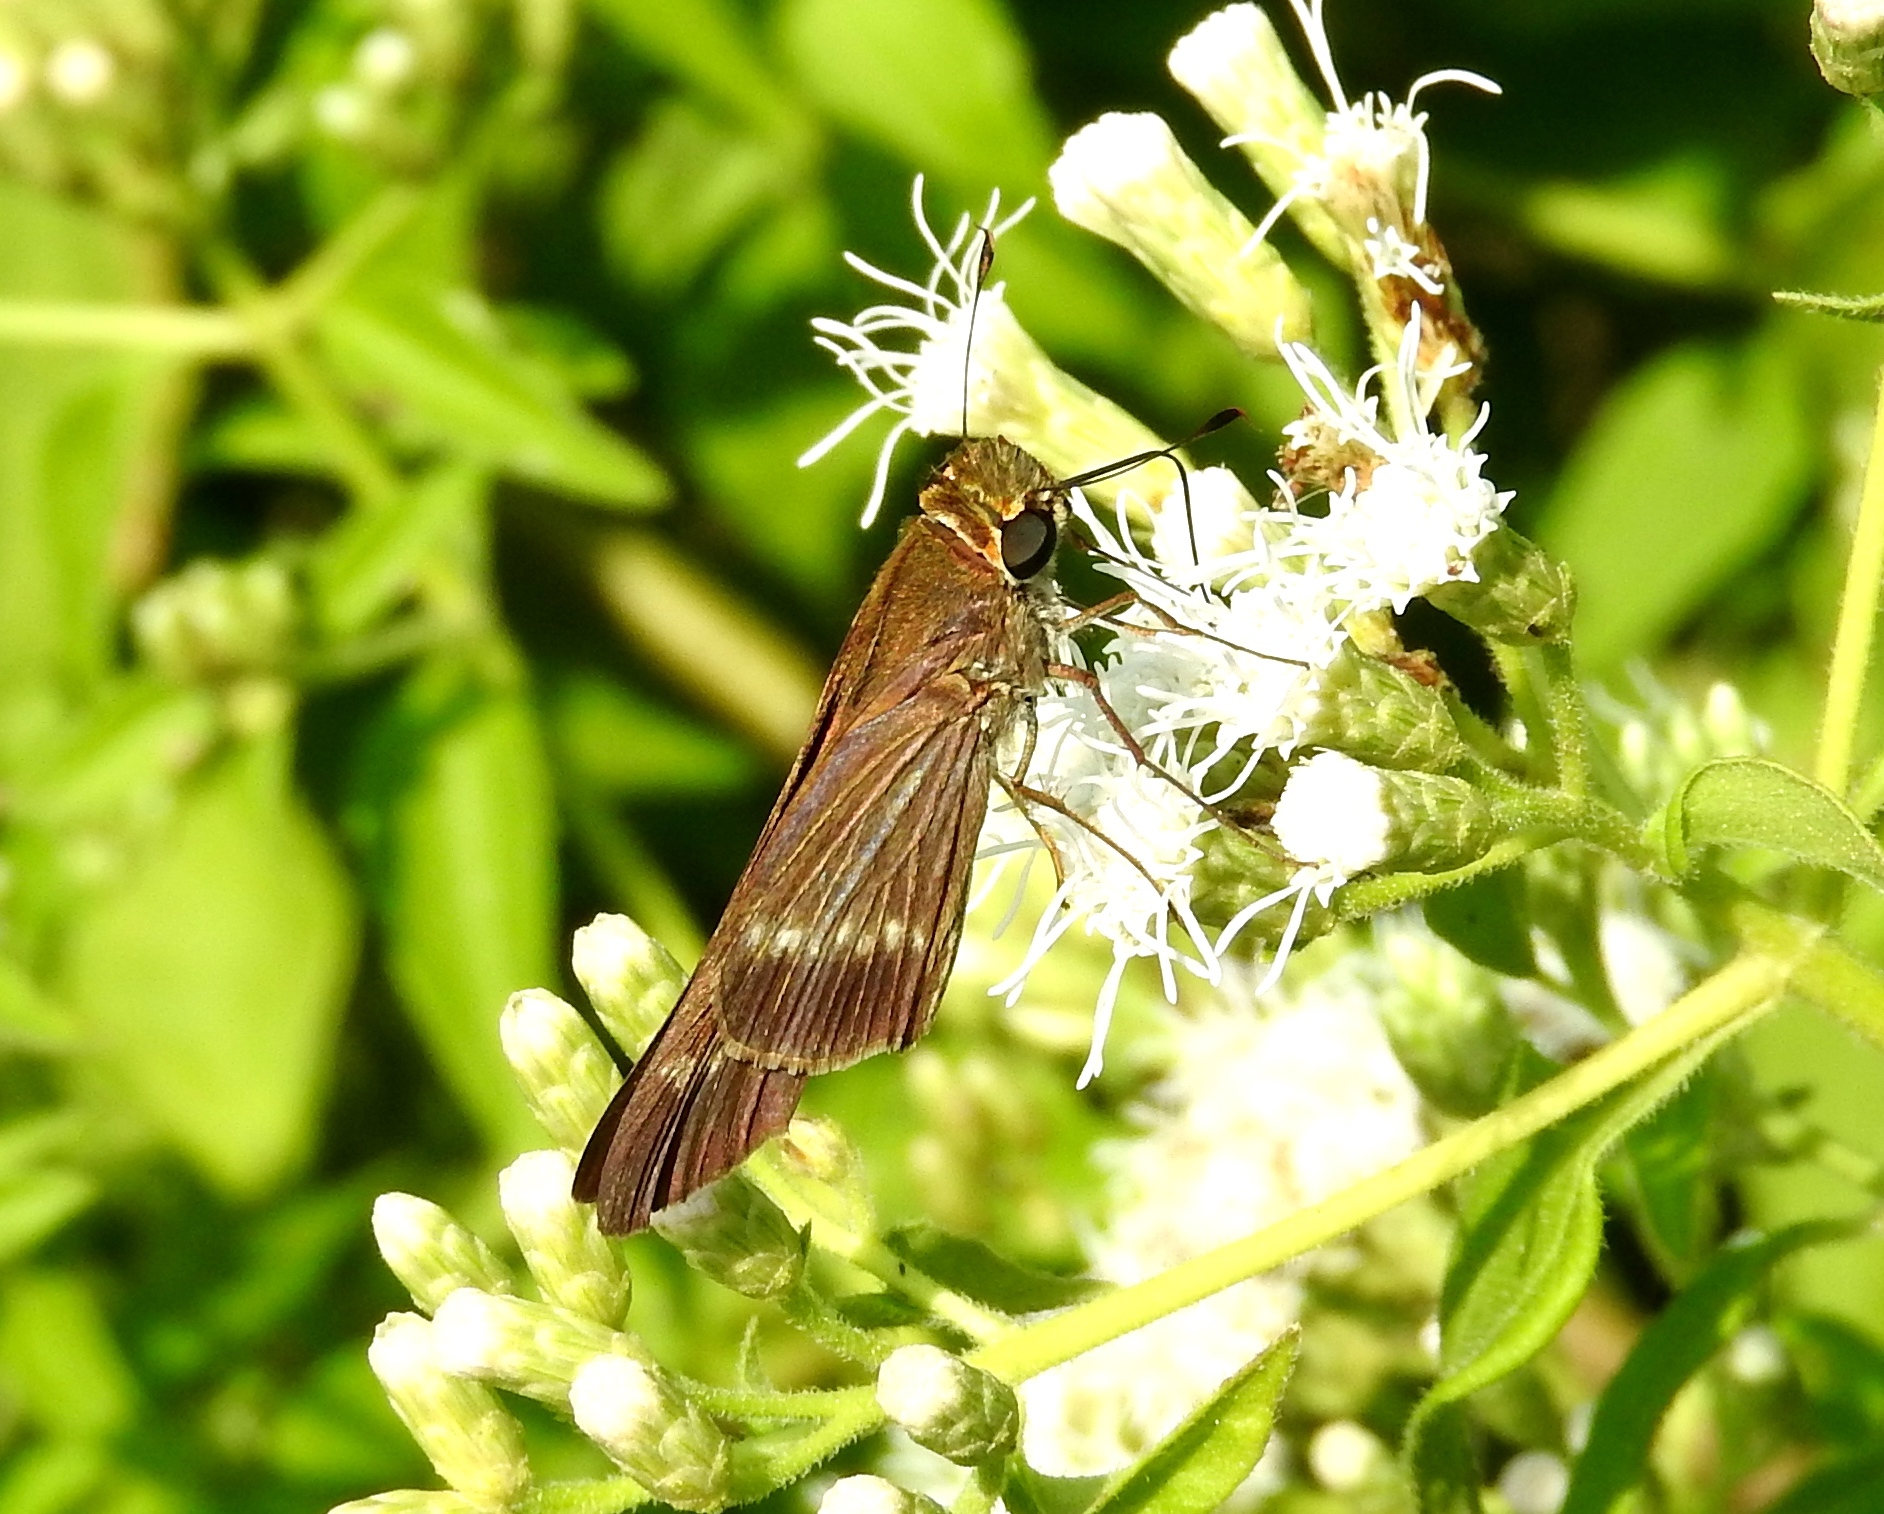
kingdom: Animalia
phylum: Arthropoda
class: Insecta
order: Lepidoptera
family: Hesperiidae
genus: Turesis
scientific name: Turesis lucas
